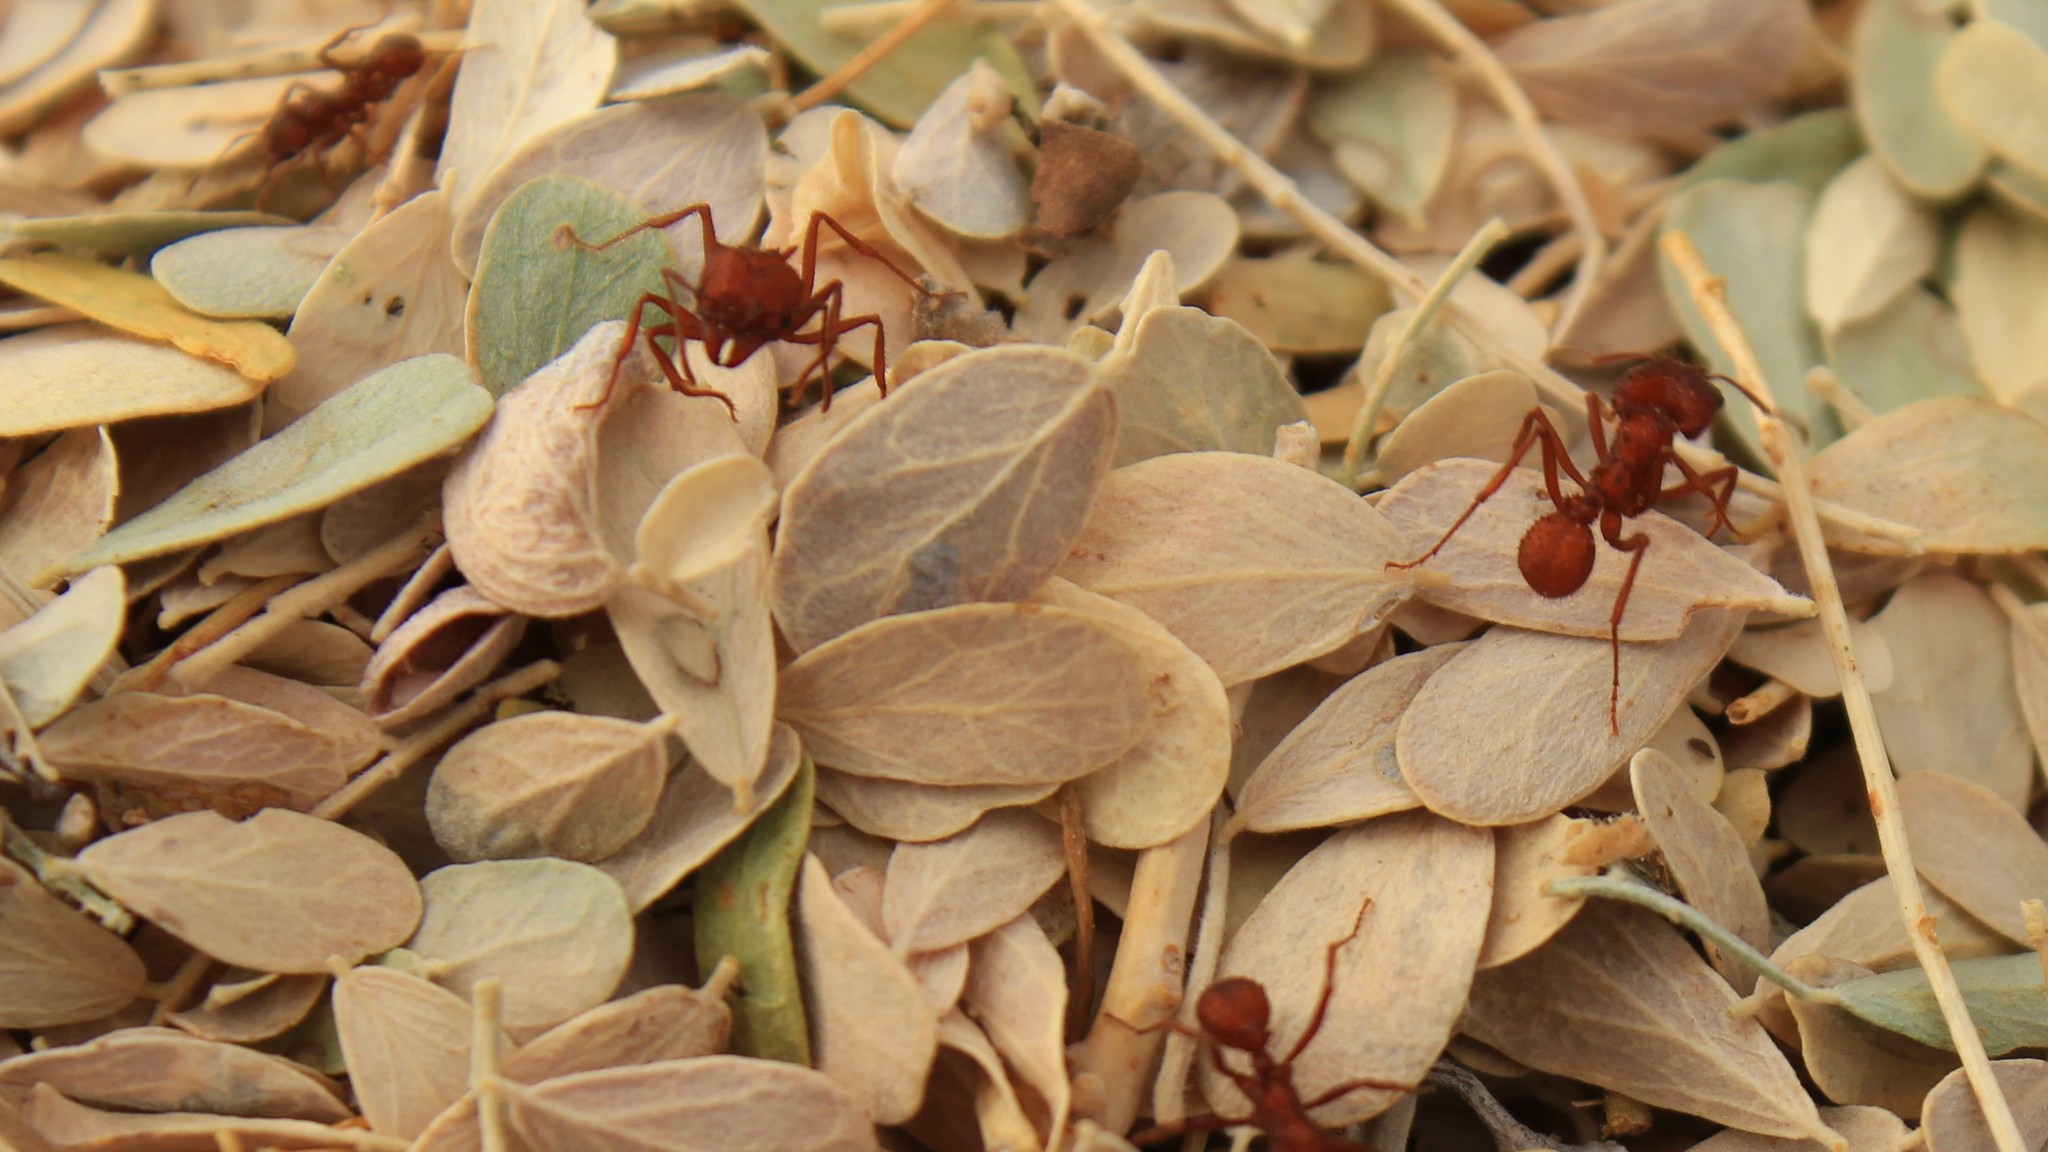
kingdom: Animalia
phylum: Arthropoda
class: Insecta
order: Hymenoptera
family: Formicidae
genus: Acromyrmex
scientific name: Acromyrmex versicolor
